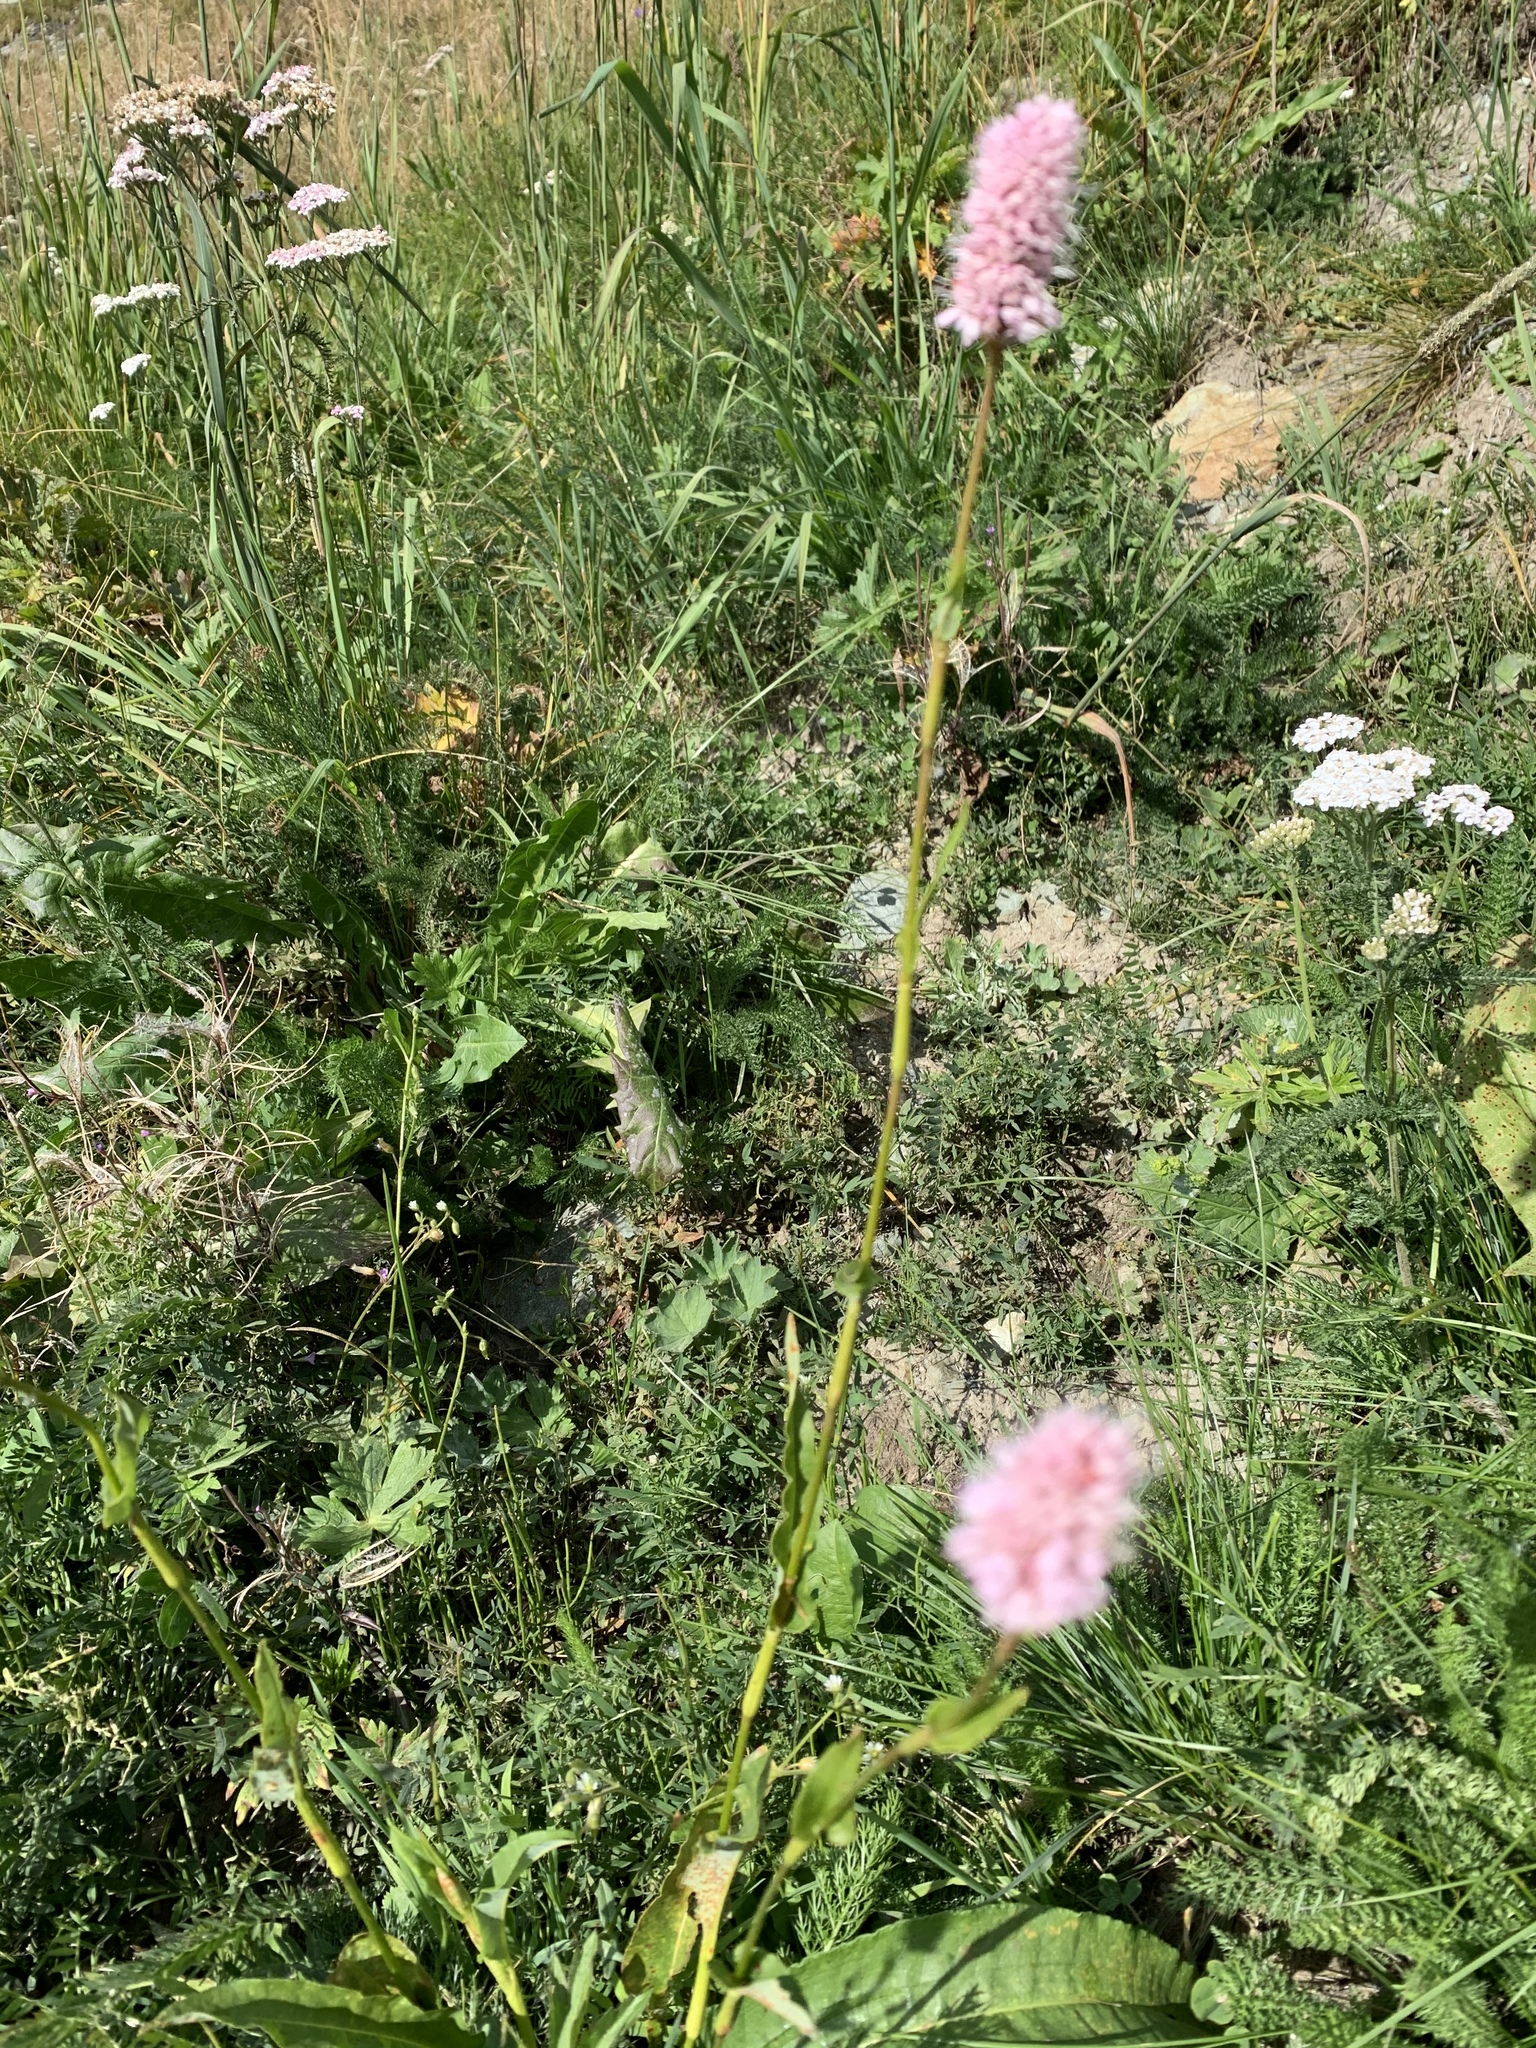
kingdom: Plantae
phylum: Tracheophyta
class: Magnoliopsida
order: Caryophyllales
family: Polygonaceae
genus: Bistorta
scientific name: Bistorta officinalis
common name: Common bistort
